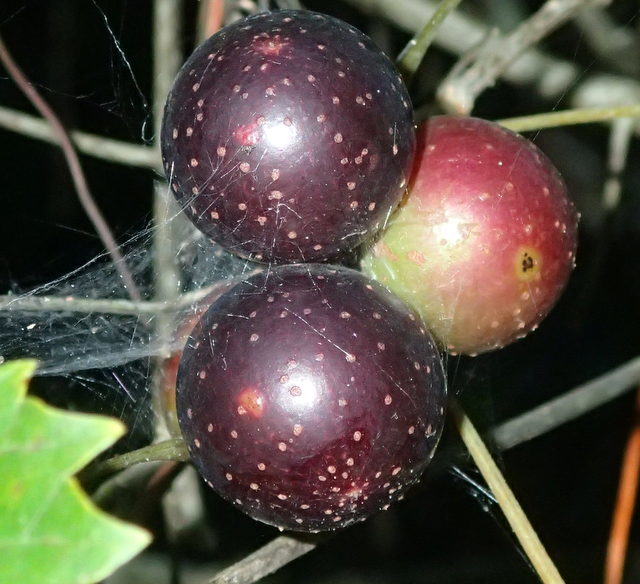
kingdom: Plantae
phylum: Tracheophyta
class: Magnoliopsida
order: Vitales
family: Vitaceae
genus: Vitis
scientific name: Vitis rotundifolia
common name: Muscadine grape
